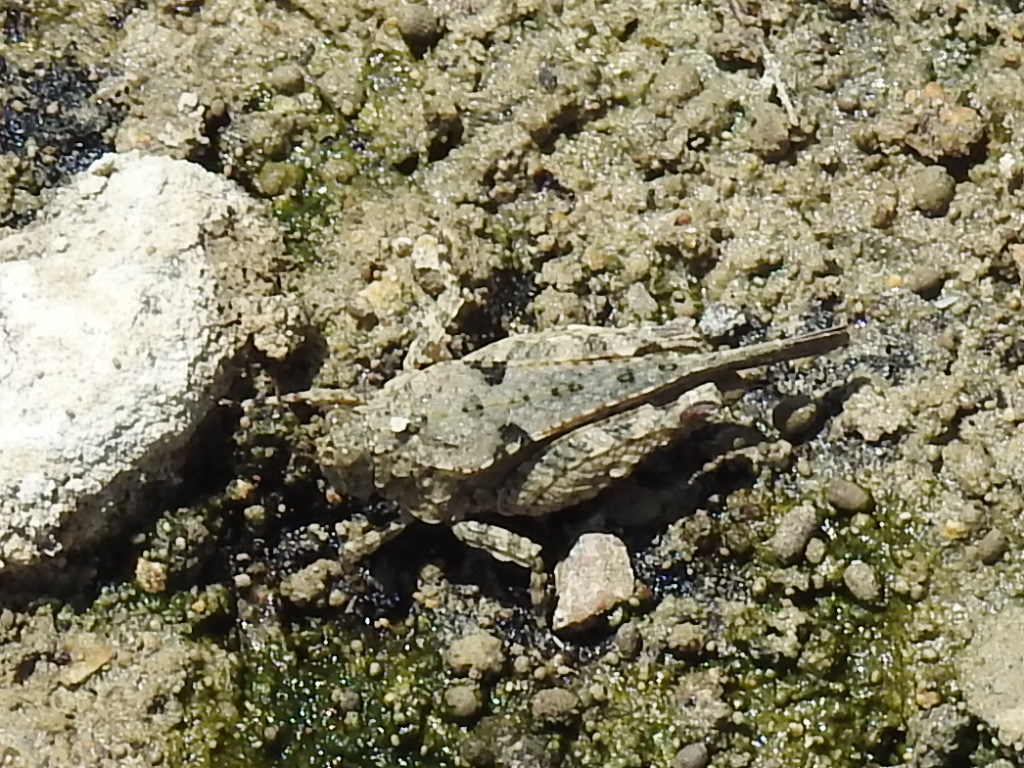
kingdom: Animalia
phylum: Arthropoda
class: Insecta
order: Orthoptera
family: Tetrigidae
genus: Paratettix
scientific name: Paratettix mexicanus
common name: Mexican pygmy grasshopper
